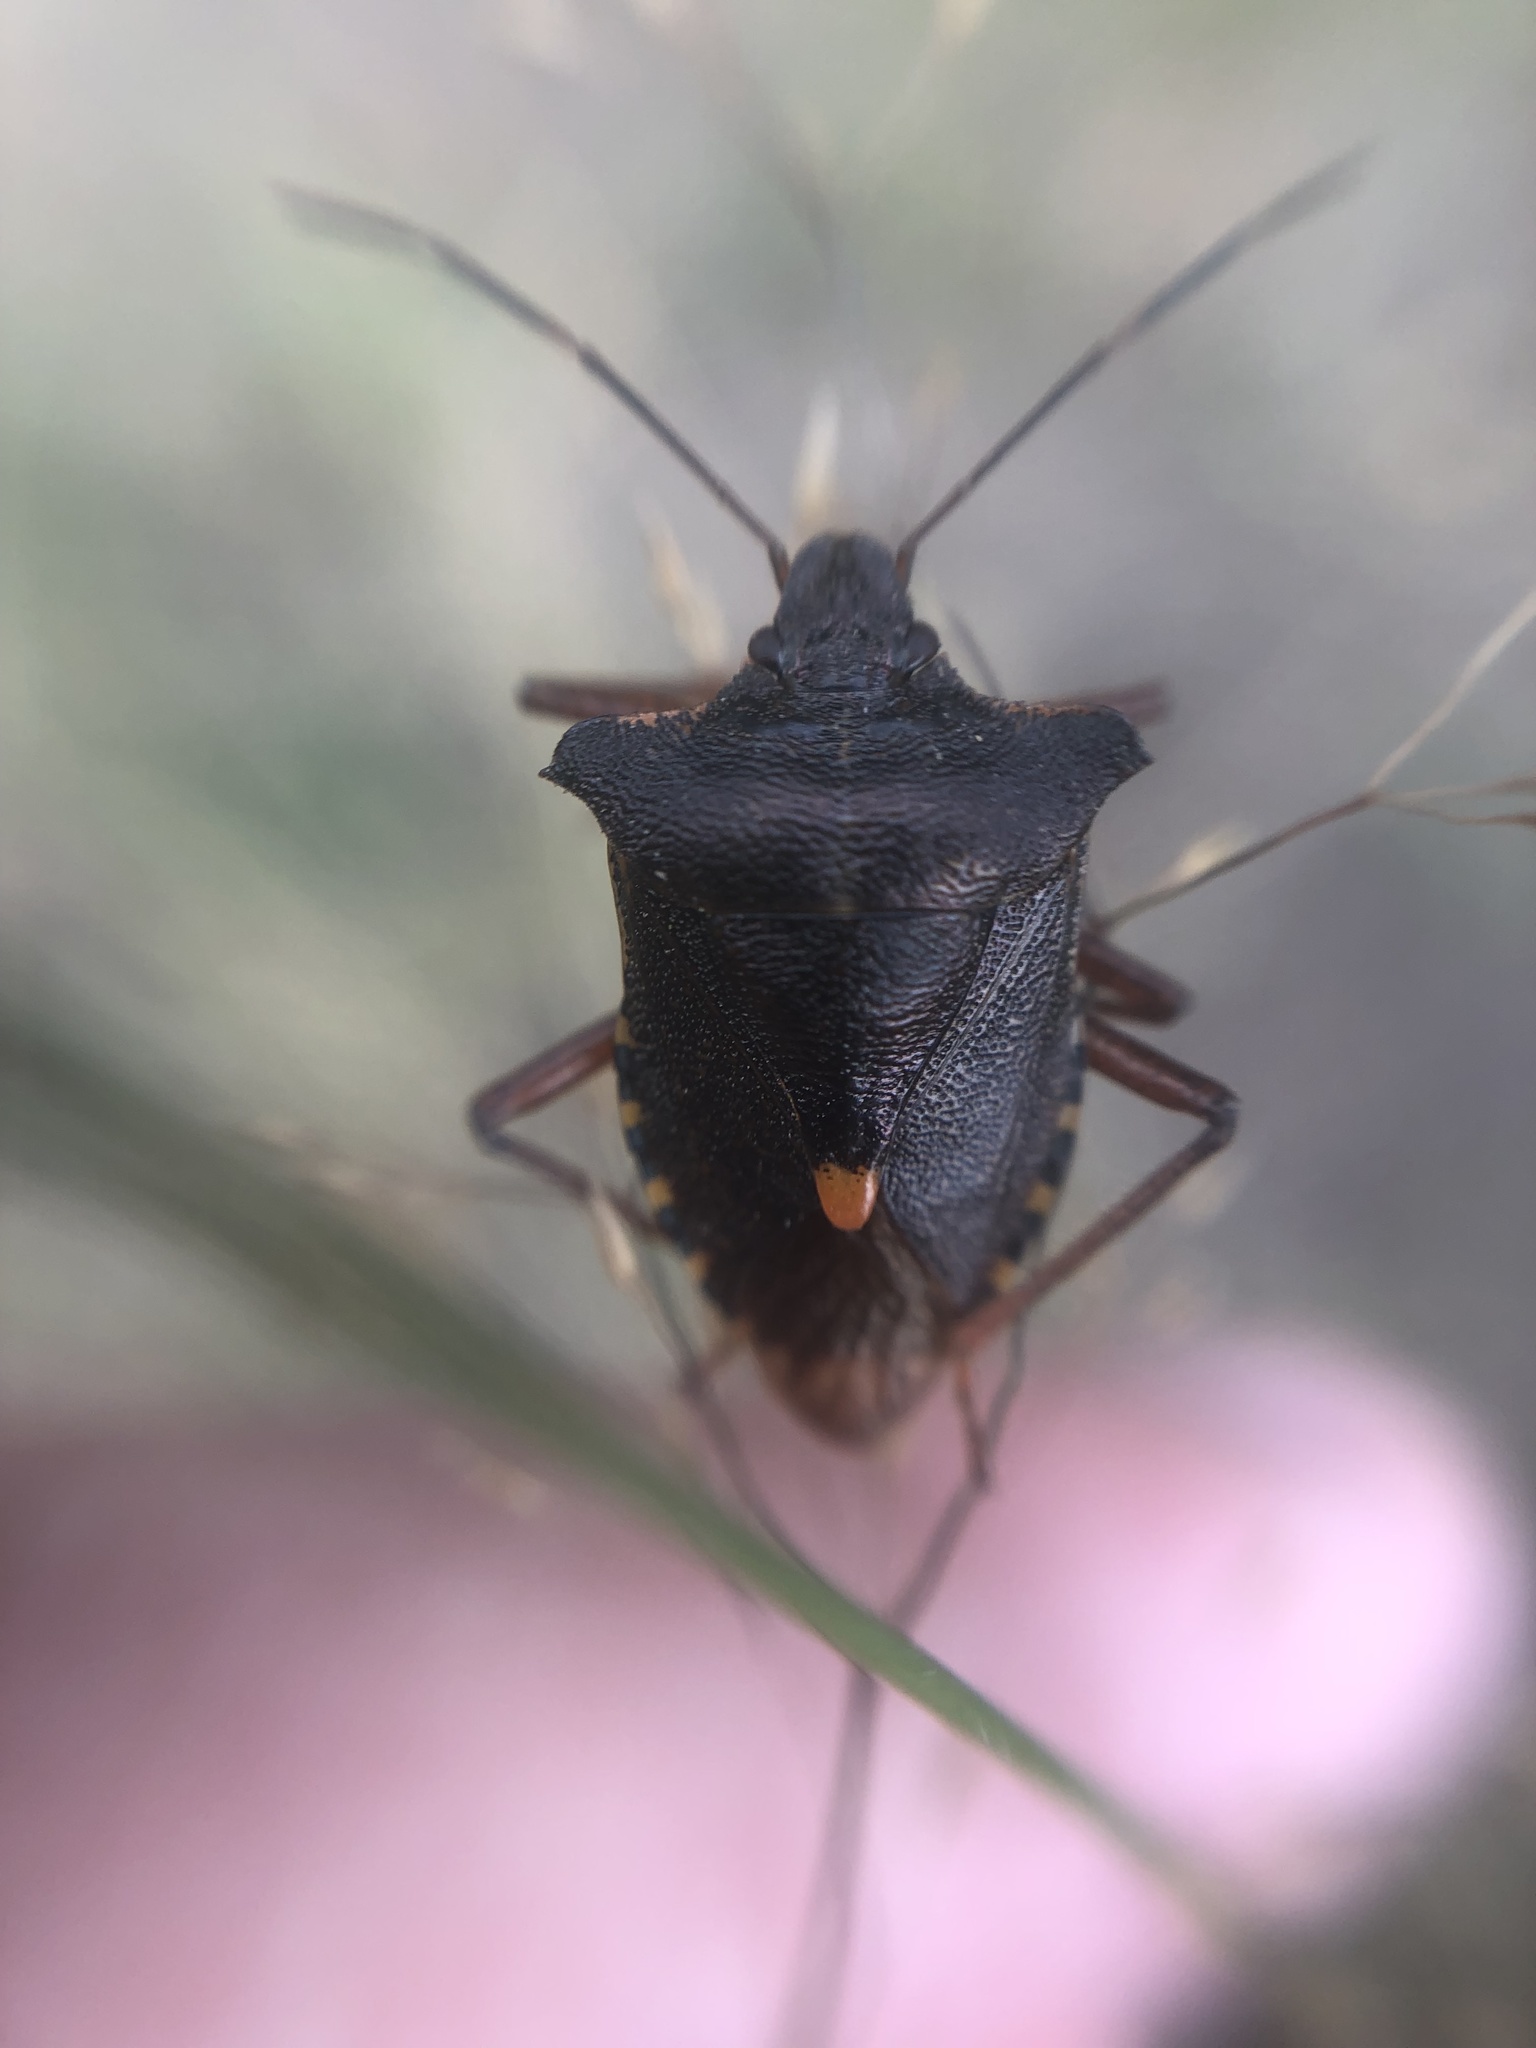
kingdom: Animalia
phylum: Arthropoda
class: Insecta
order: Hemiptera
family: Pentatomidae
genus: Pentatoma
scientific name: Pentatoma rufipes
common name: Forest bug
